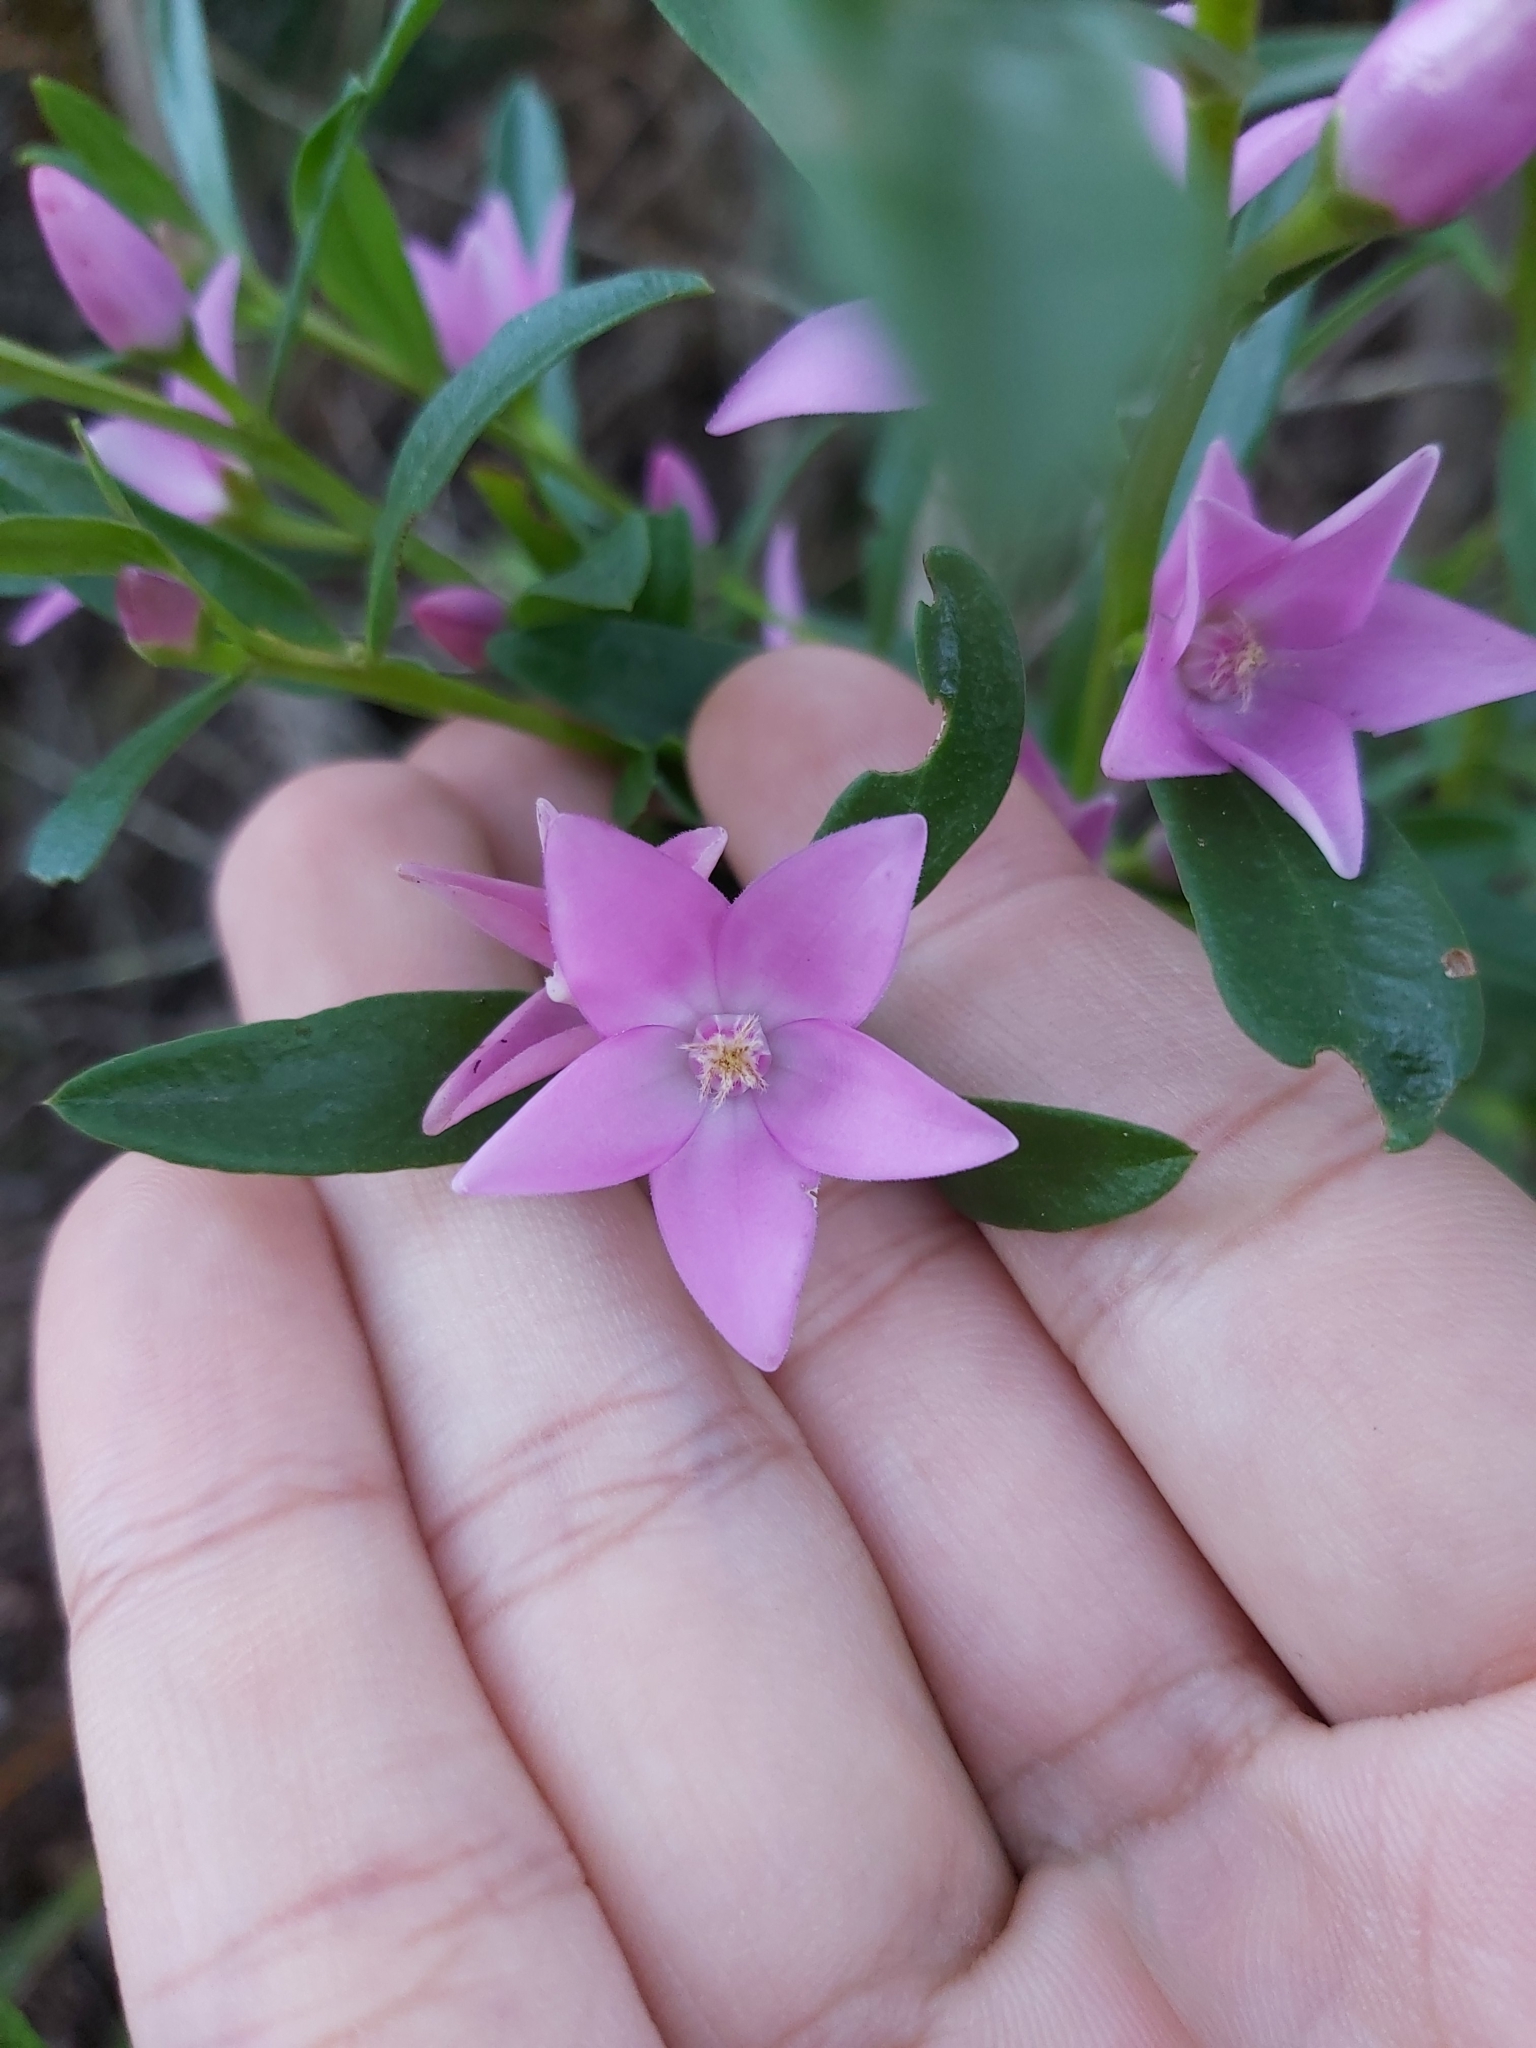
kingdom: Plantae
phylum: Tracheophyta
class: Magnoliopsida
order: Sapindales
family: Rutaceae
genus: Crowea
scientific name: Crowea saligna
